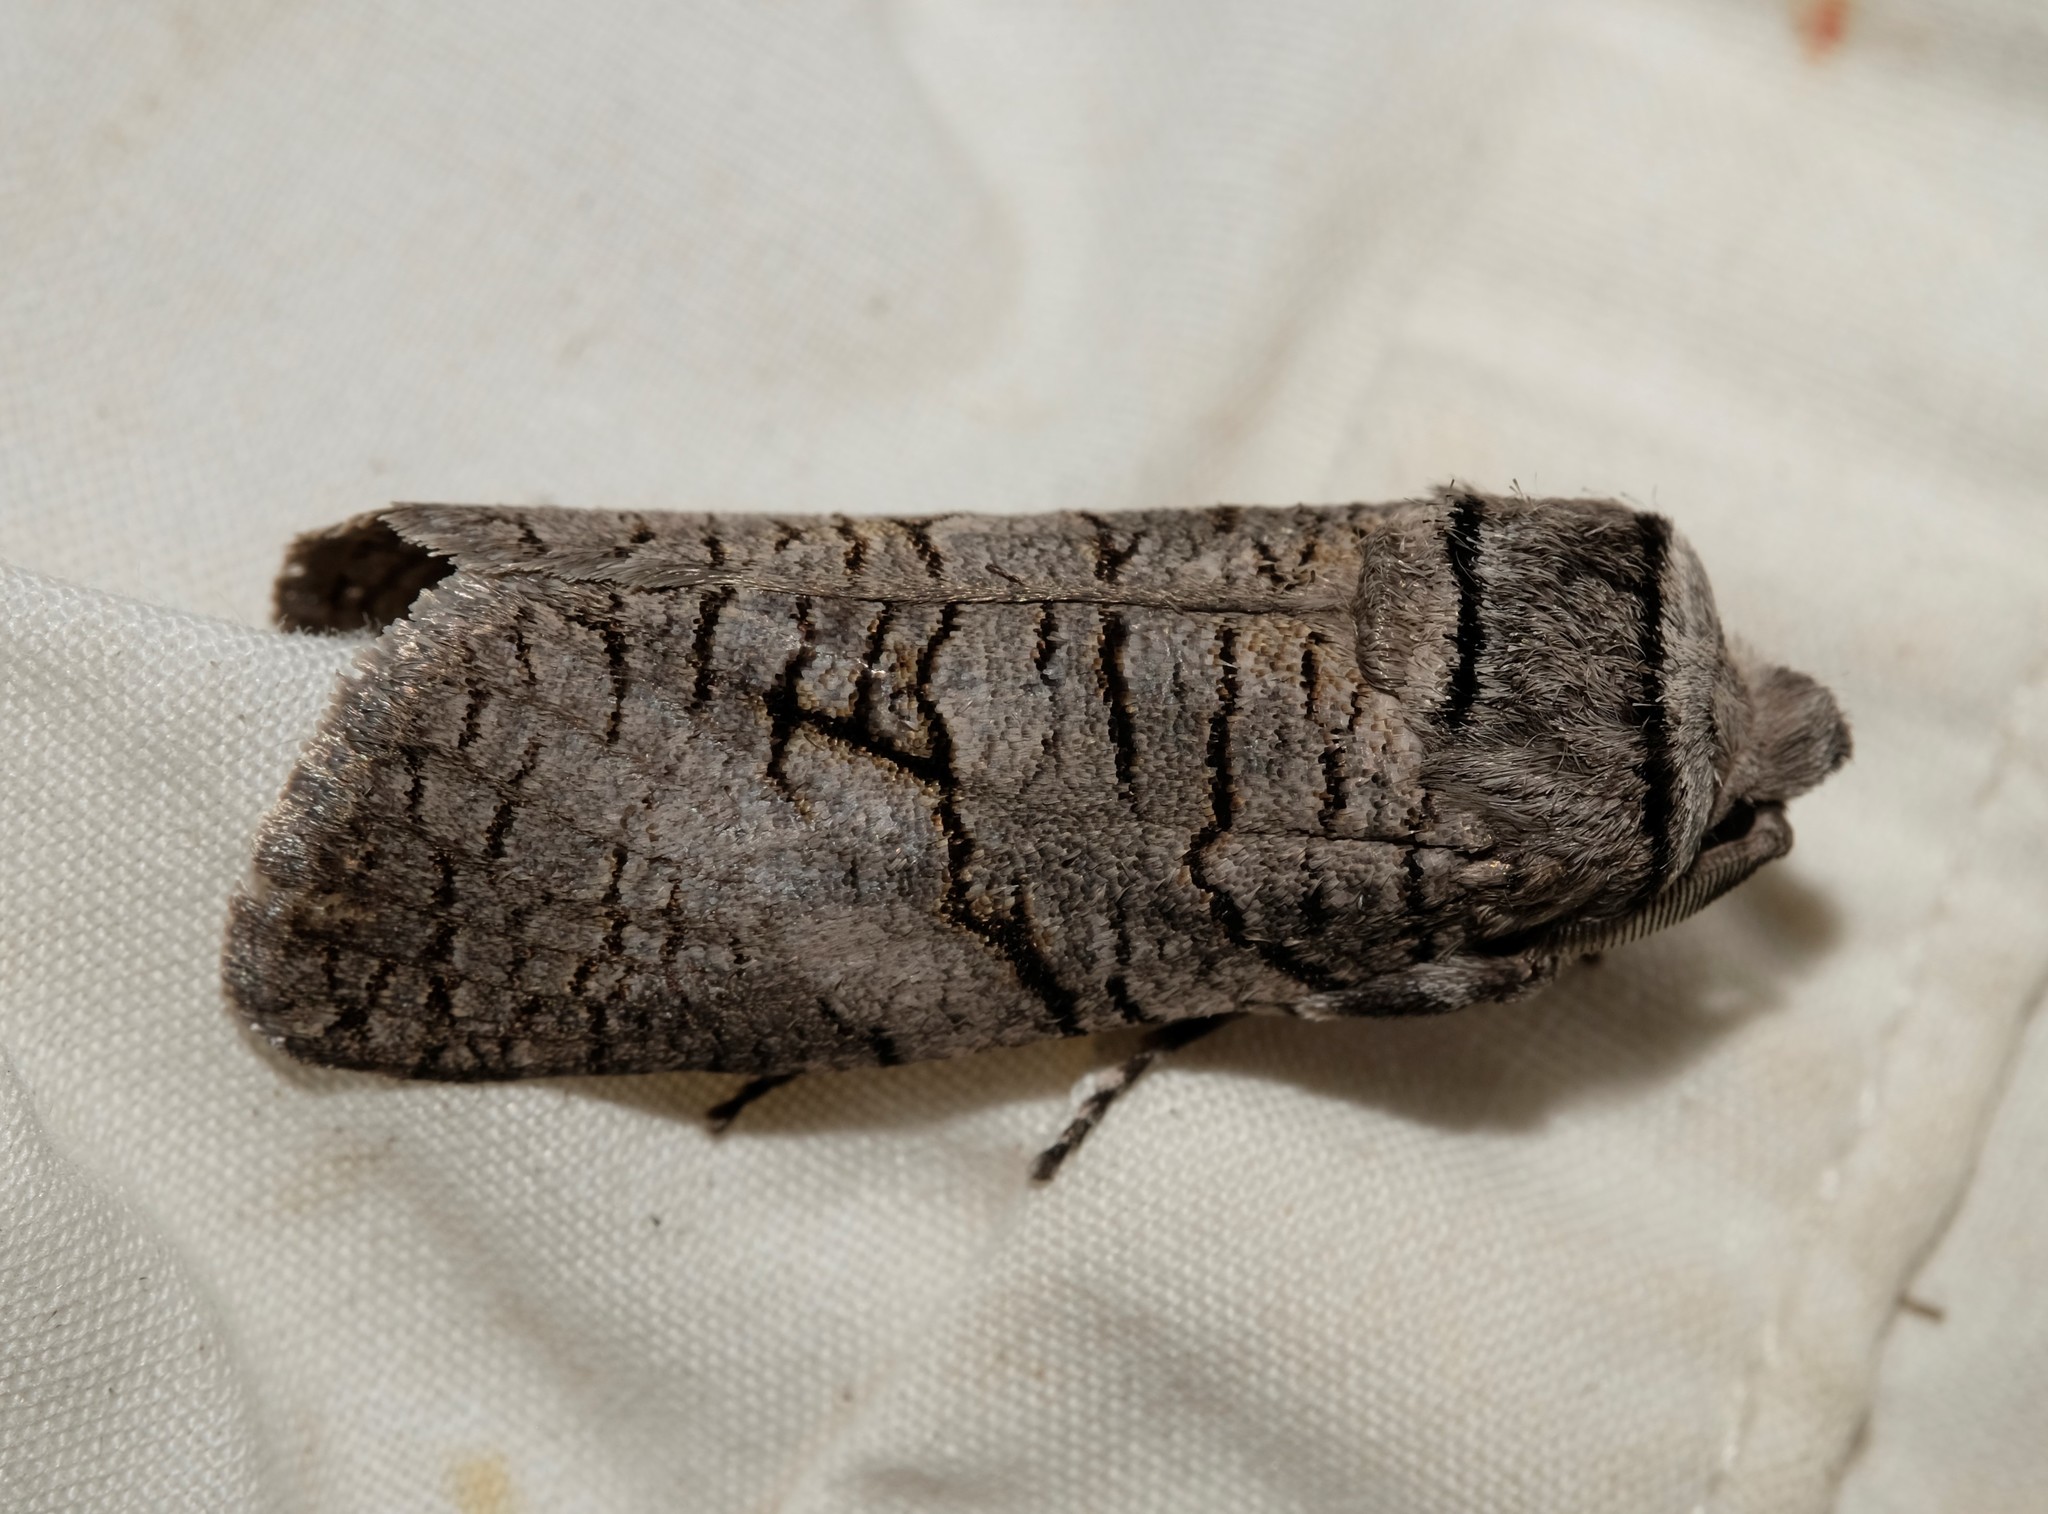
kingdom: Animalia
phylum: Arthropoda
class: Insecta
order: Lepidoptera
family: Cossidae
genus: Culama
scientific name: Culama anthracica
